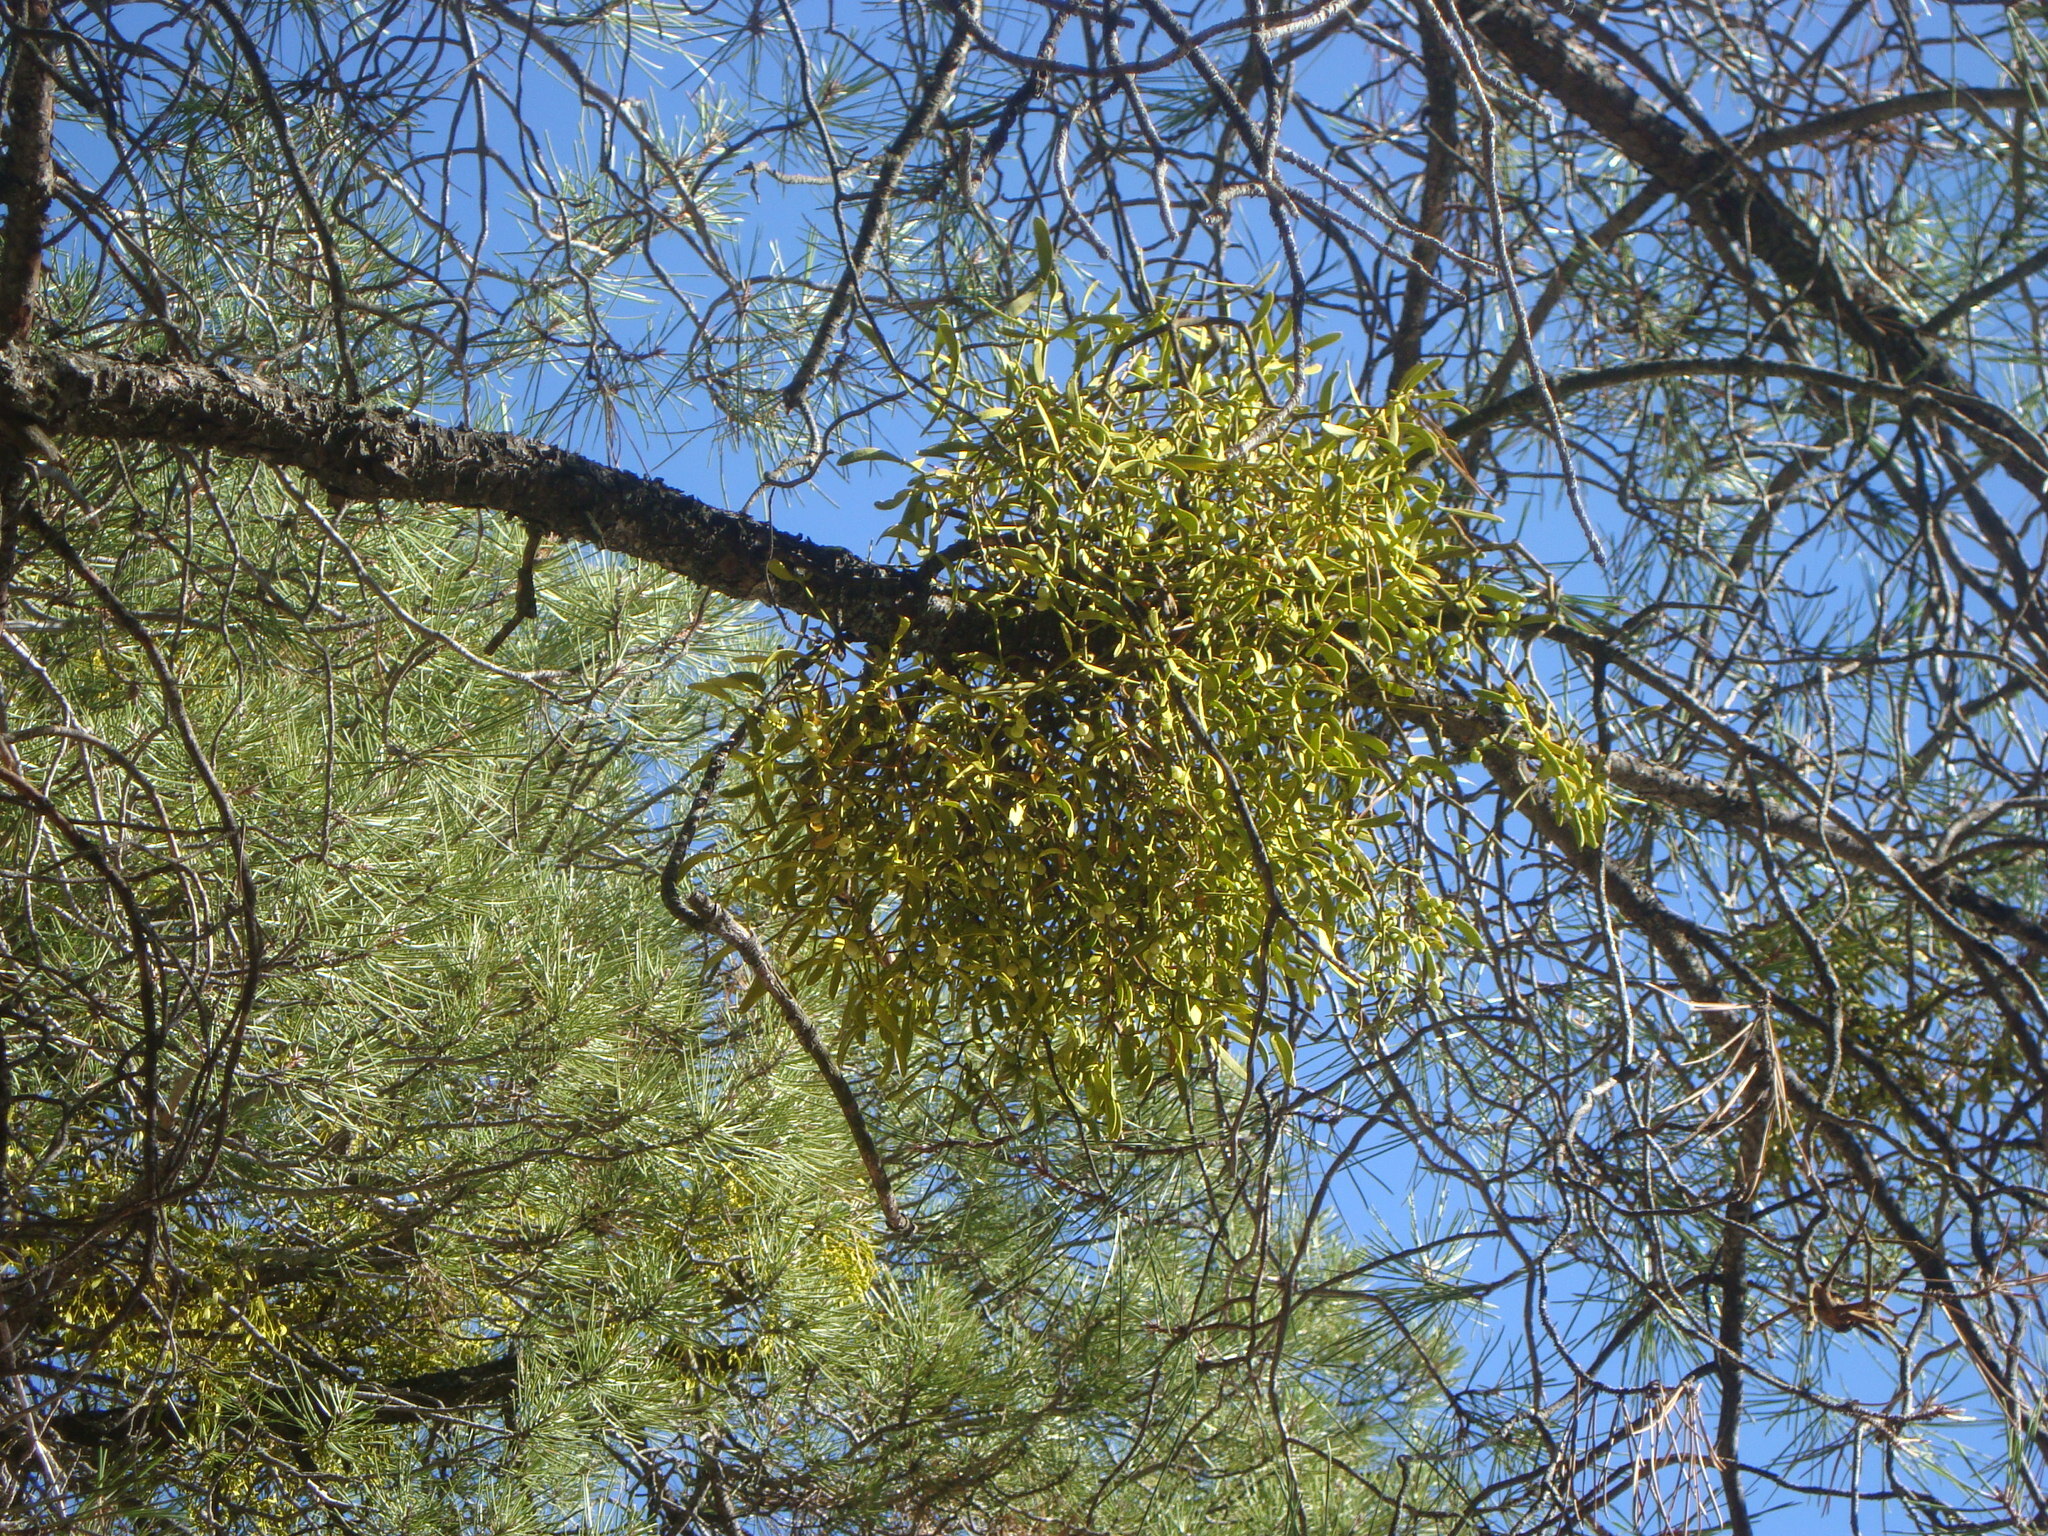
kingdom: Plantae
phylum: Tracheophyta
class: Magnoliopsida
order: Santalales
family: Viscaceae
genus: Viscum
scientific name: Viscum album
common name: Mistletoe
